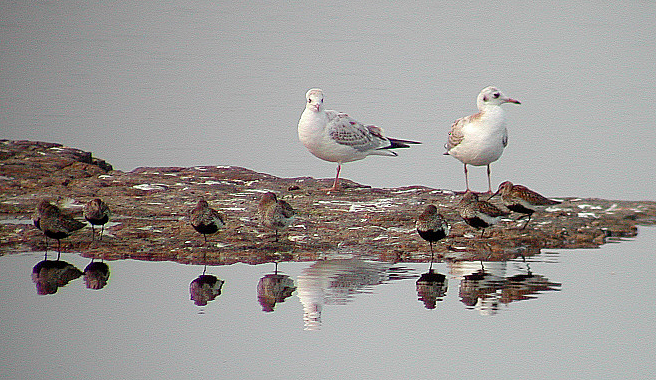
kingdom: Animalia
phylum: Chordata
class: Aves
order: Charadriiformes
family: Laridae
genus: Chroicocephalus
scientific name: Chroicocephalus ridibundus
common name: Black-headed gull
